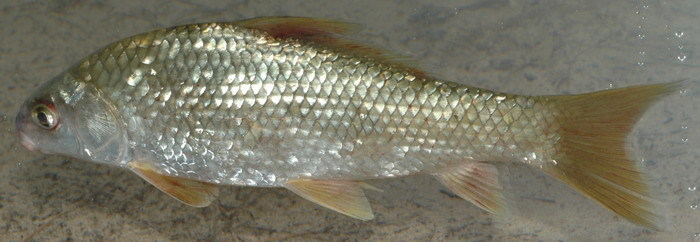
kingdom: Animalia
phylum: Chordata
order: Cypriniformes
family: Catostomidae
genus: Carpiodes
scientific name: Carpiodes carpio
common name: River carpsucker
